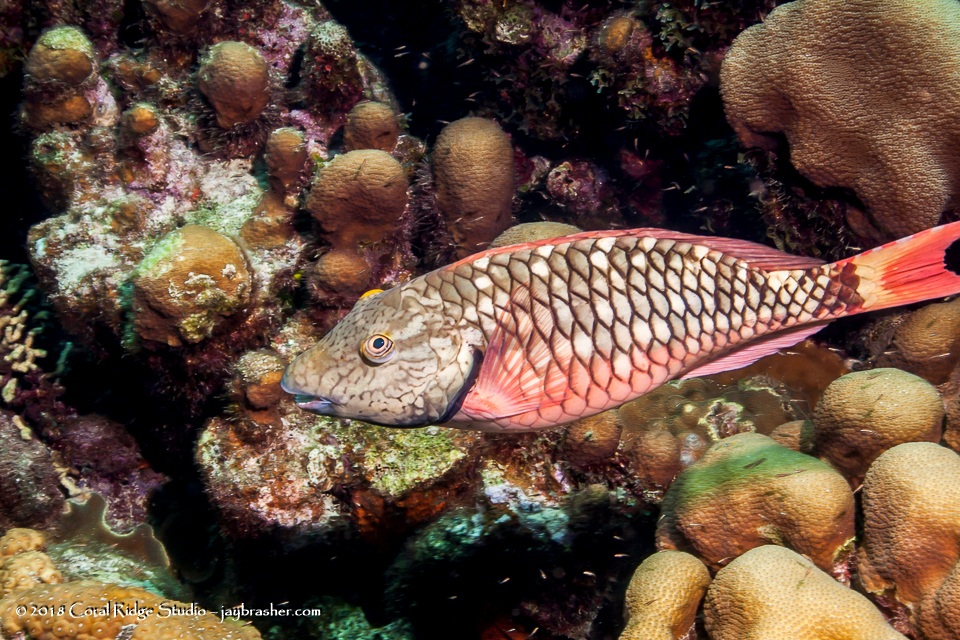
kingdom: Animalia
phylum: Chordata
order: Perciformes
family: Scaridae
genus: Sparisoma
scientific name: Sparisoma viride
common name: Stoplight parrotfish
